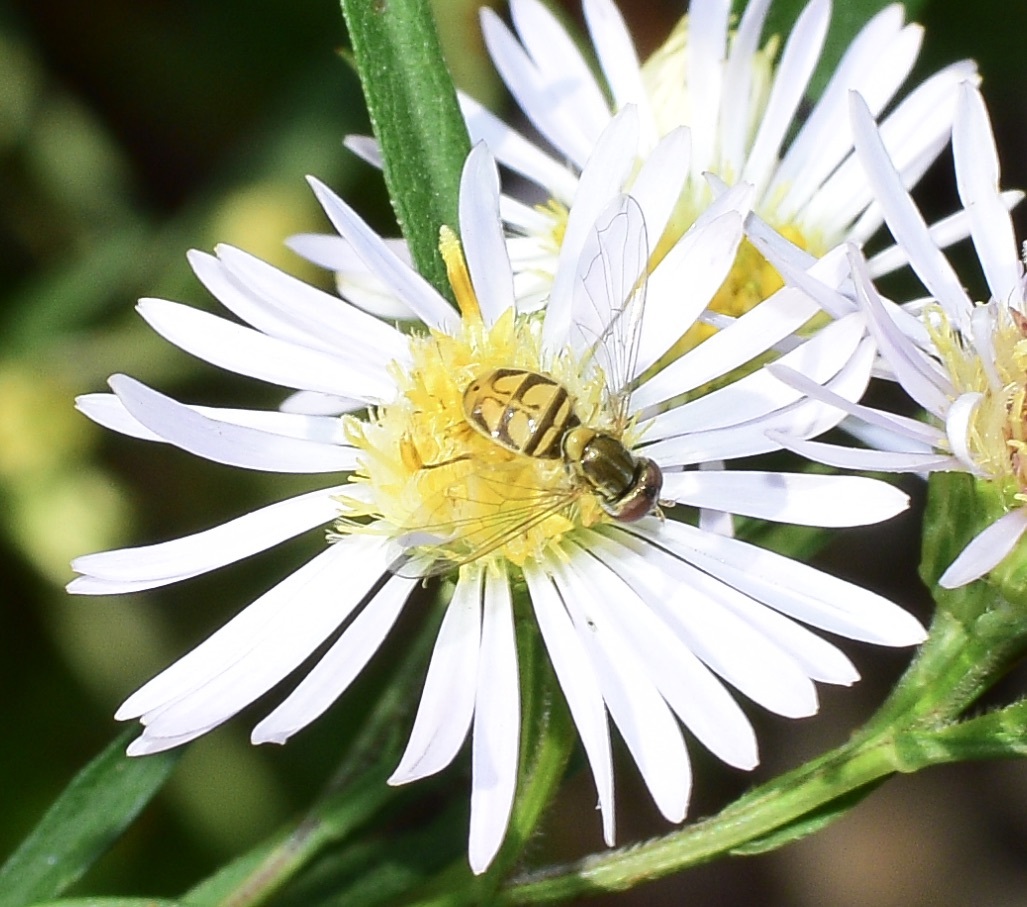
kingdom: Animalia
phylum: Arthropoda
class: Insecta
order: Diptera
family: Syrphidae
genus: Toxomerus
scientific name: Toxomerus marginatus
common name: Syrphid fly
